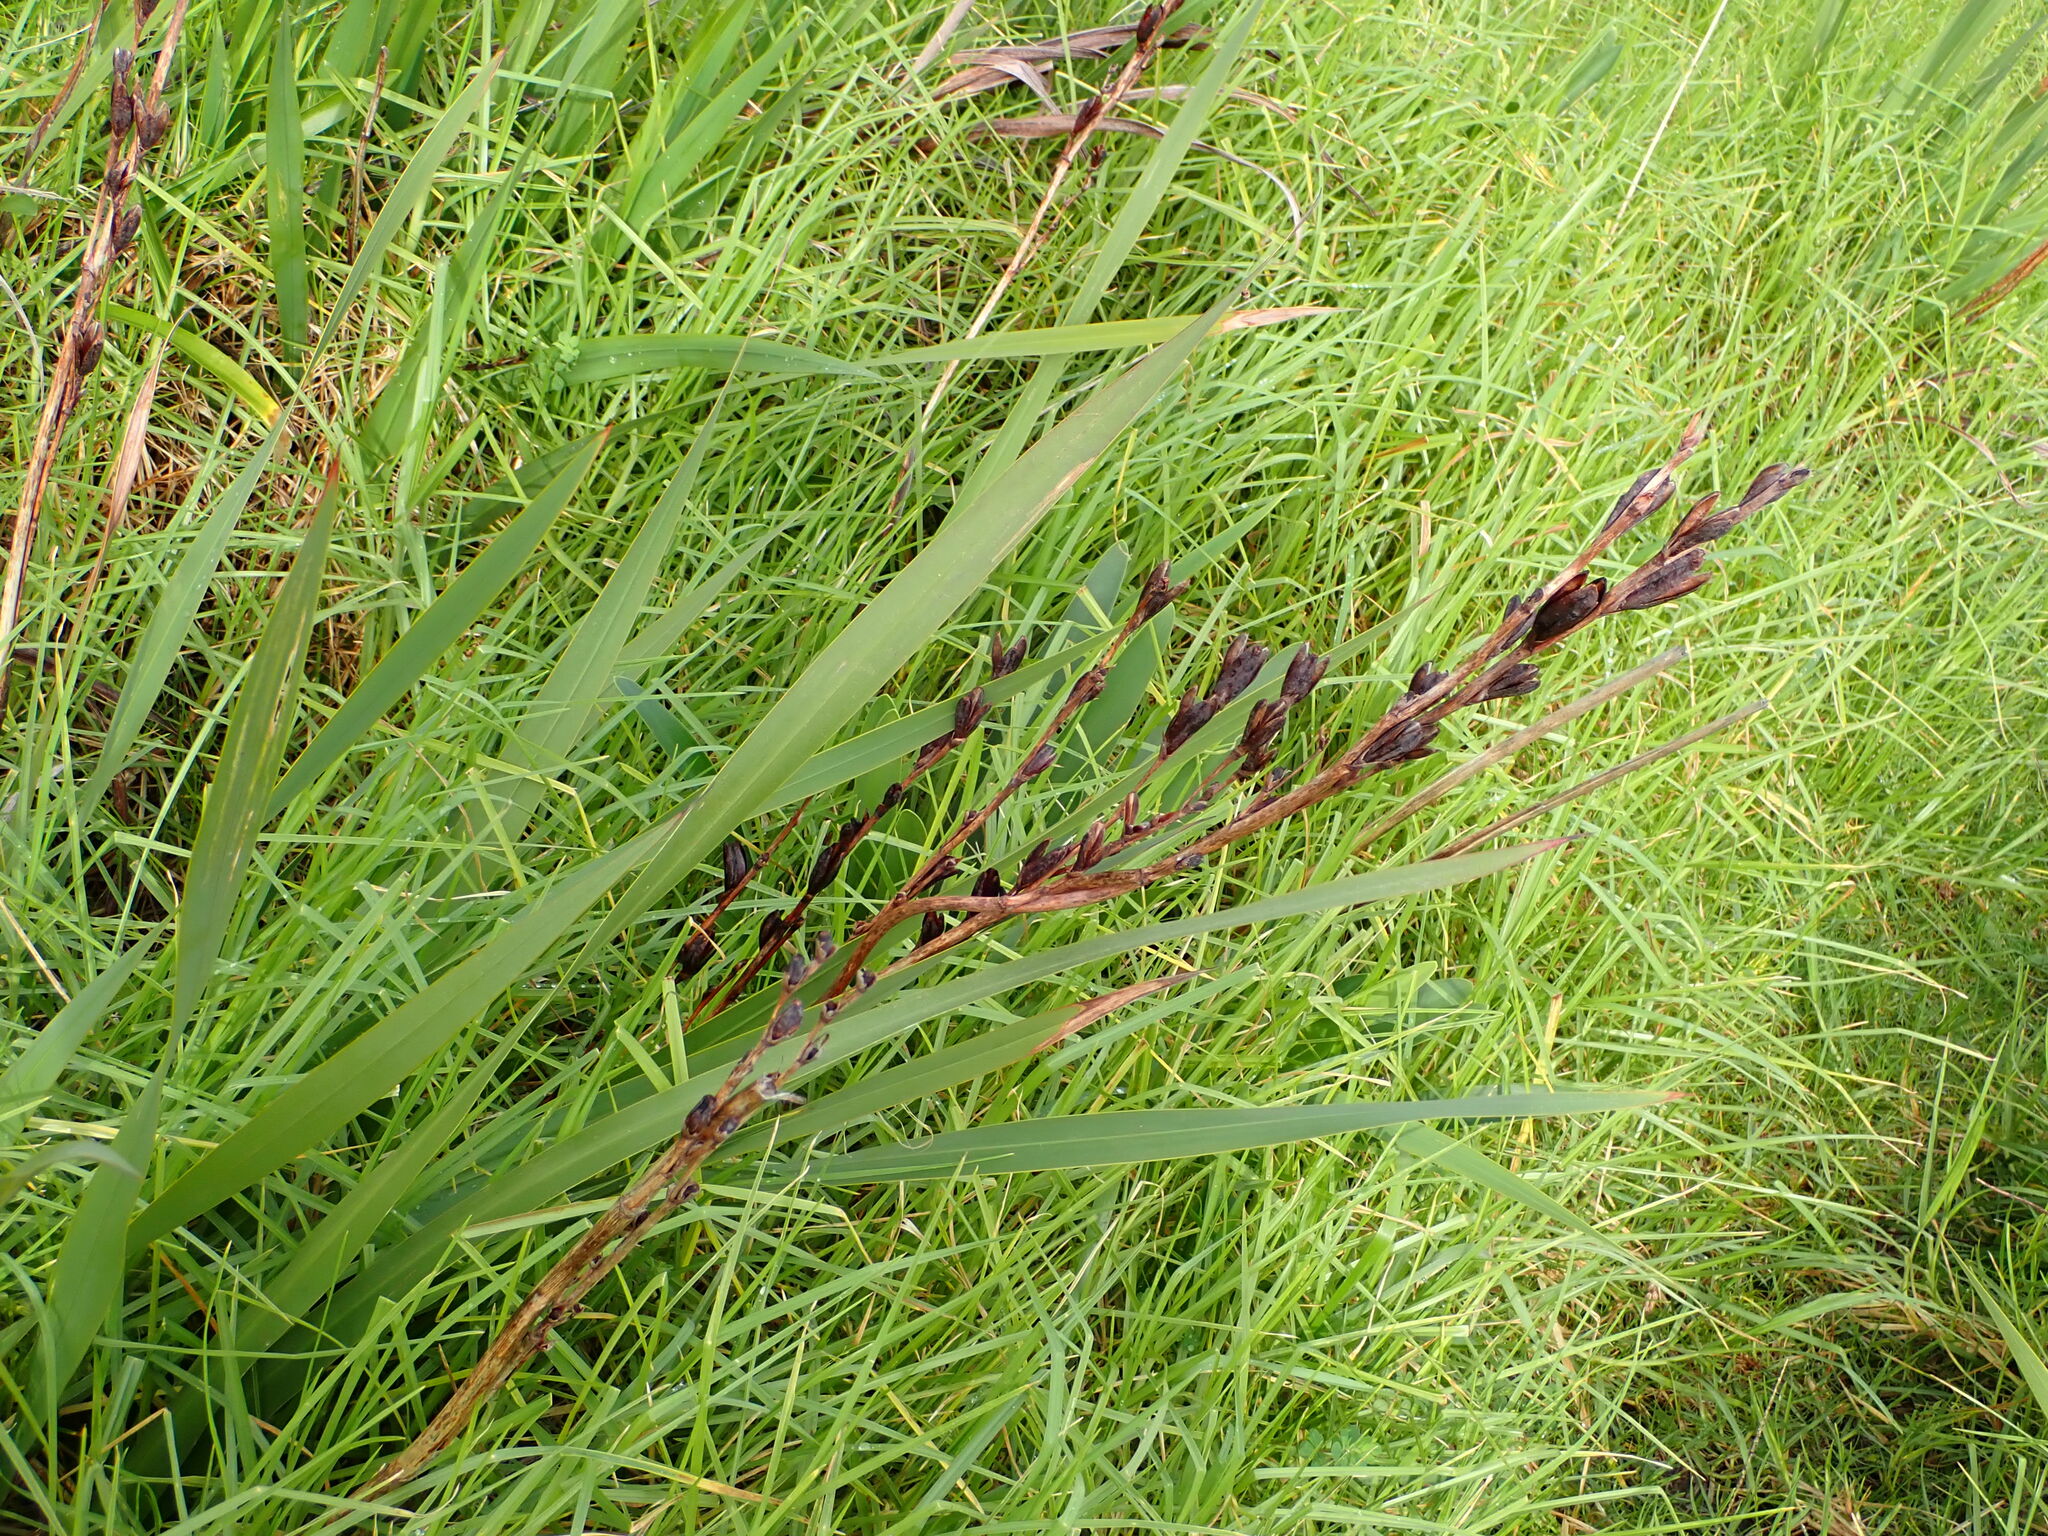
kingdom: Plantae
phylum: Tracheophyta
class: Liliopsida
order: Asparagales
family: Iridaceae
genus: Watsonia
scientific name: Watsonia meriana
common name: Bulbil bugle-lily
